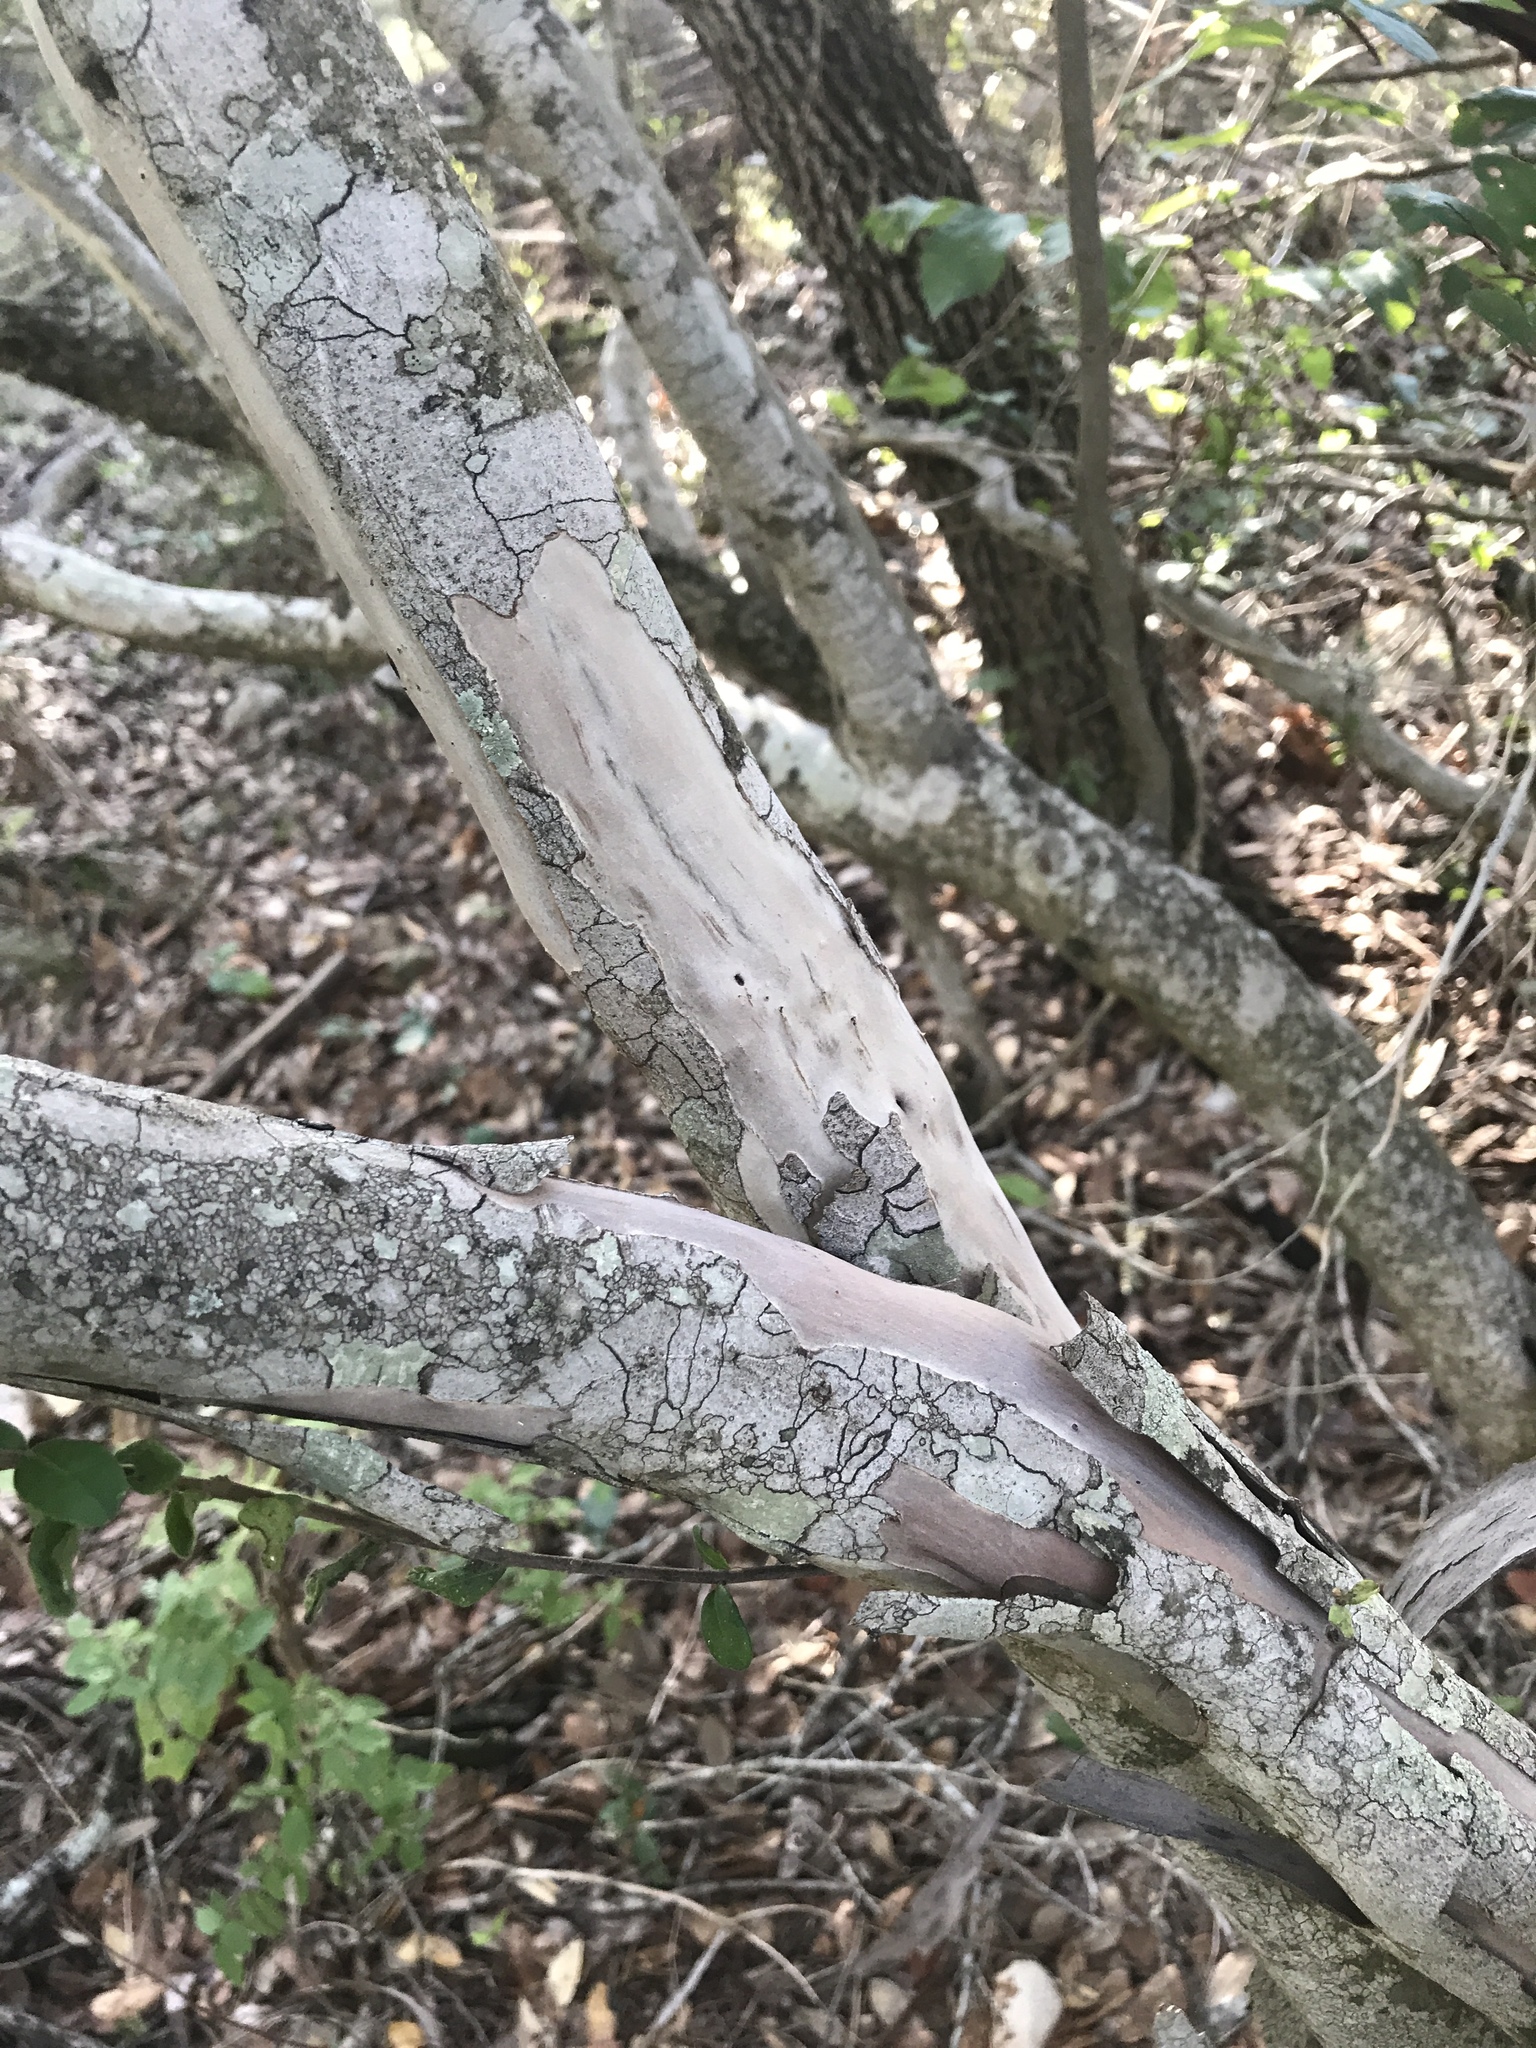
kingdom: Plantae
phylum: Tracheophyta
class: Magnoliopsida
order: Ericales
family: Ebenaceae
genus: Diospyros
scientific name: Diospyros texana
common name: Texas persimmon
